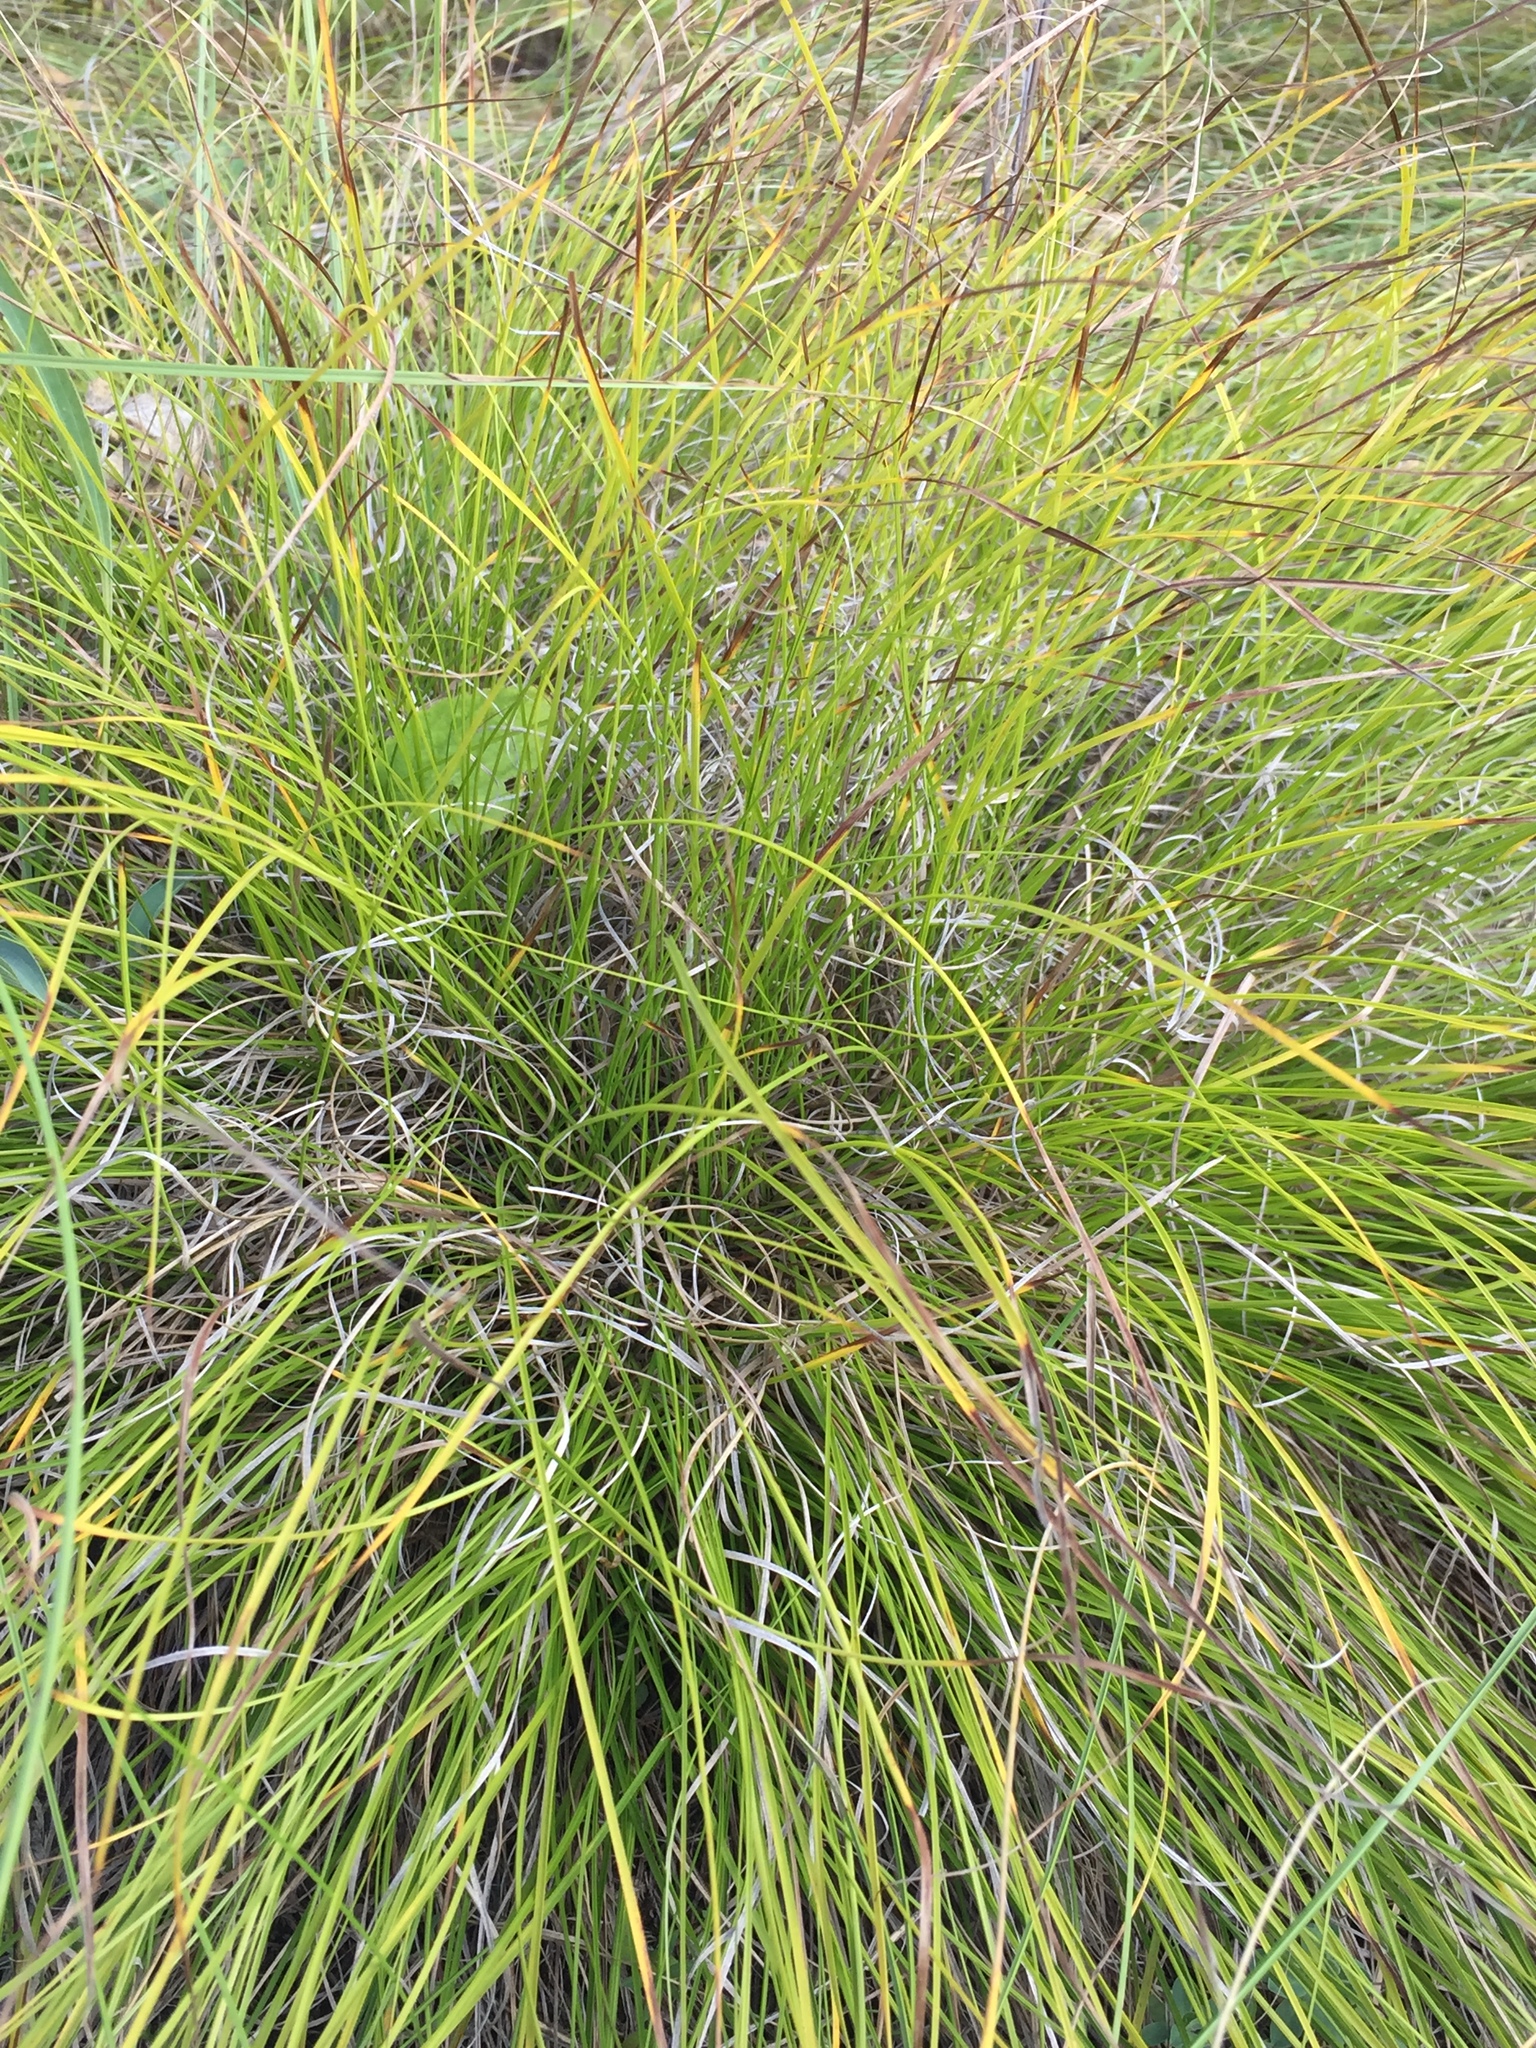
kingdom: Plantae
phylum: Tracheophyta
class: Liliopsida
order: Poales
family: Cyperaceae
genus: Carex
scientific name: Carex humilis
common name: Dwarf sedge
